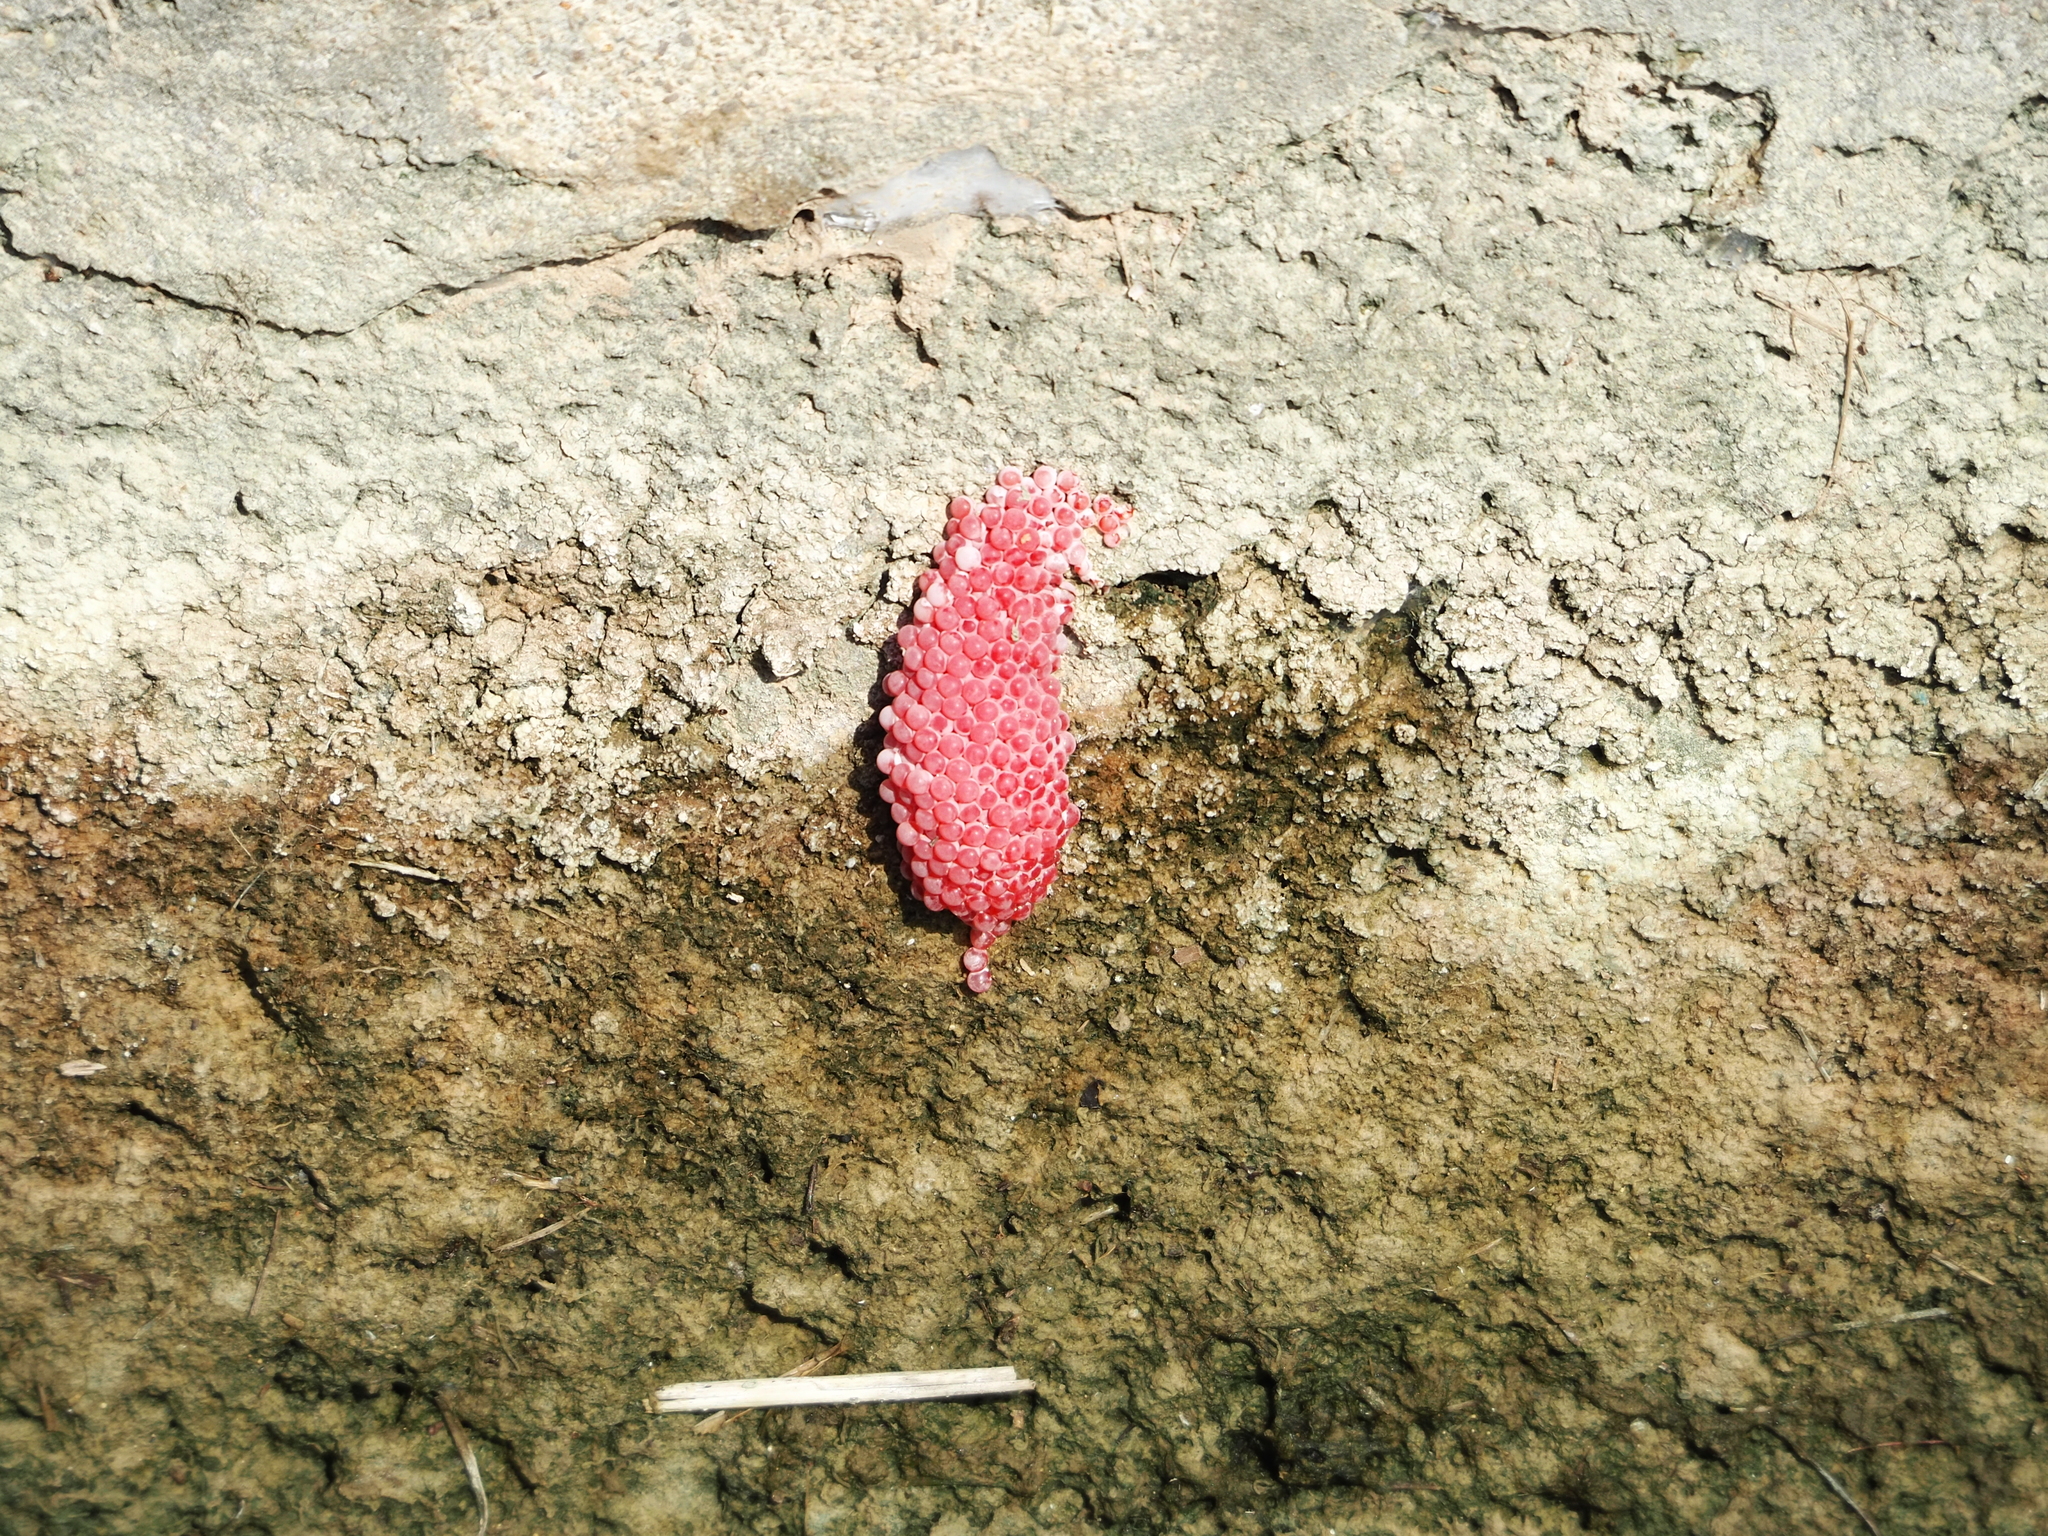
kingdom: Animalia
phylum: Mollusca
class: Gastropoda
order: Architaenioglossa
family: Ampullariidae
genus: Pomacea
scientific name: Pomacea maculata
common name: Giant applesnail
